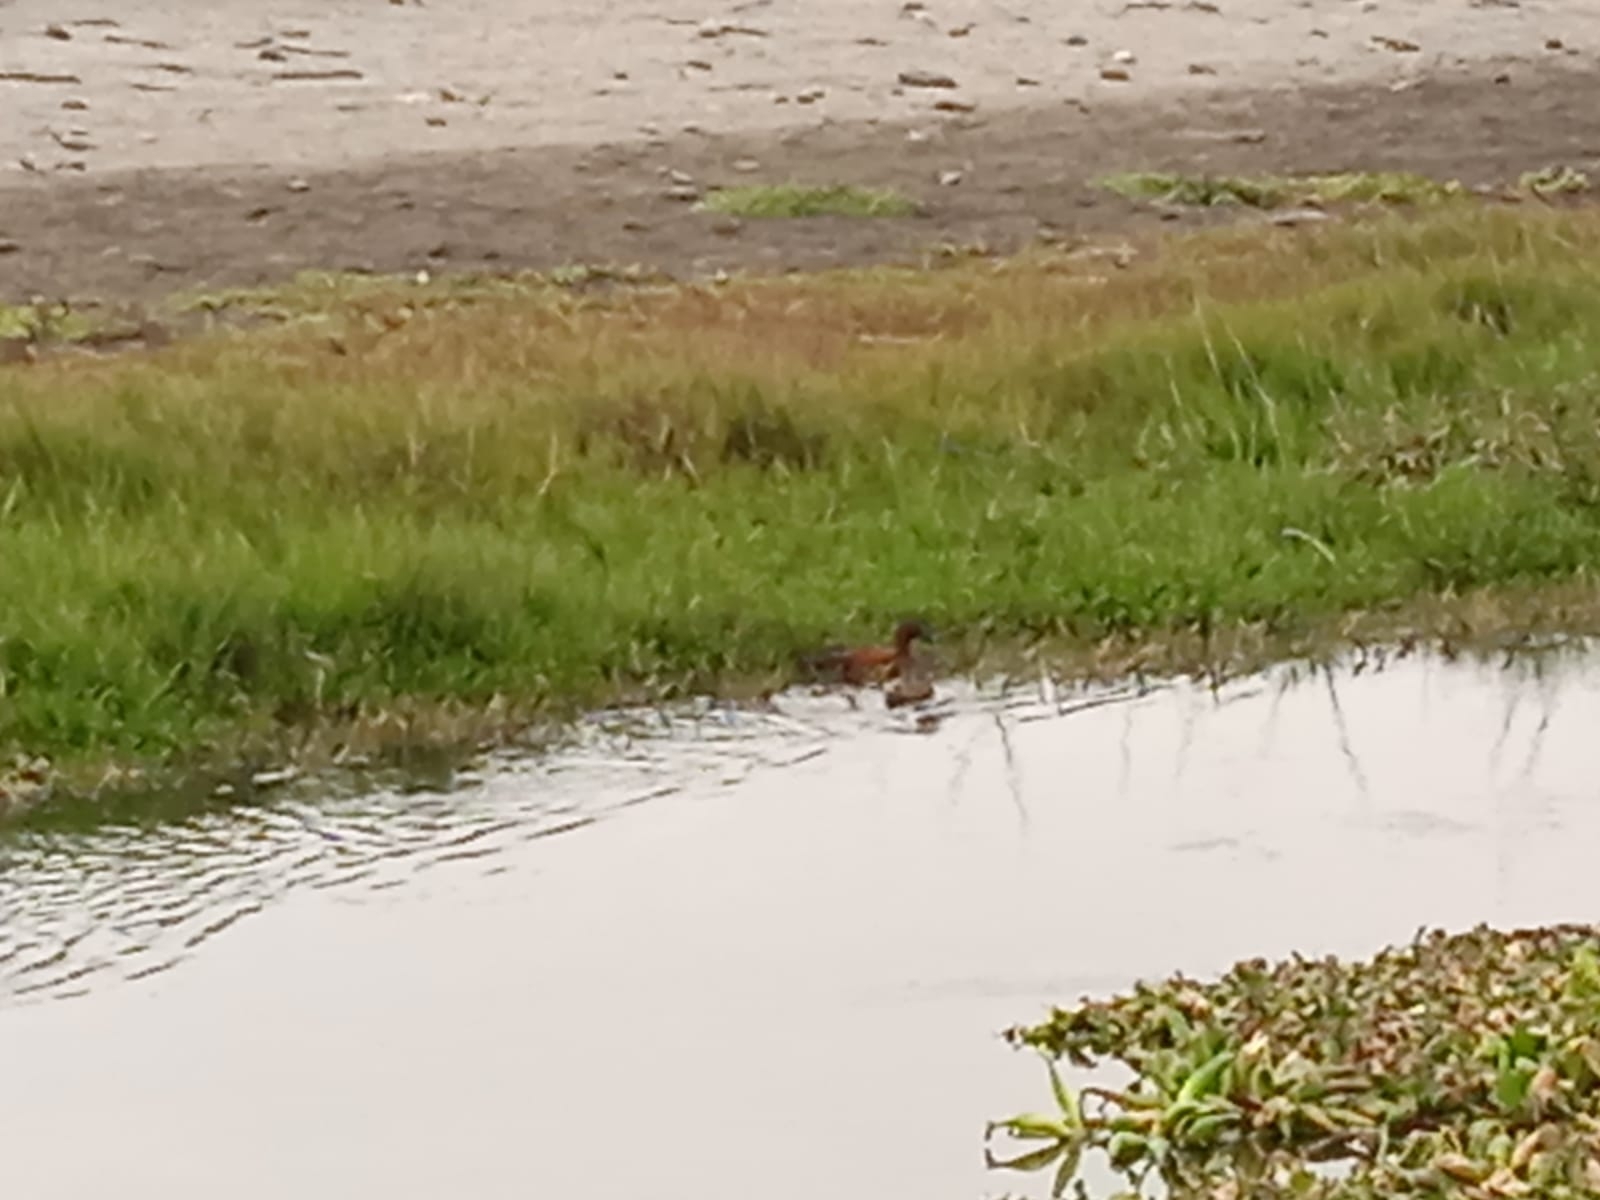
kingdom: Animalia
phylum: Chordata
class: Aves
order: Anseriformes
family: Anatidae
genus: Spatula
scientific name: Spatula cyanoptera
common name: Cinnamon teal
